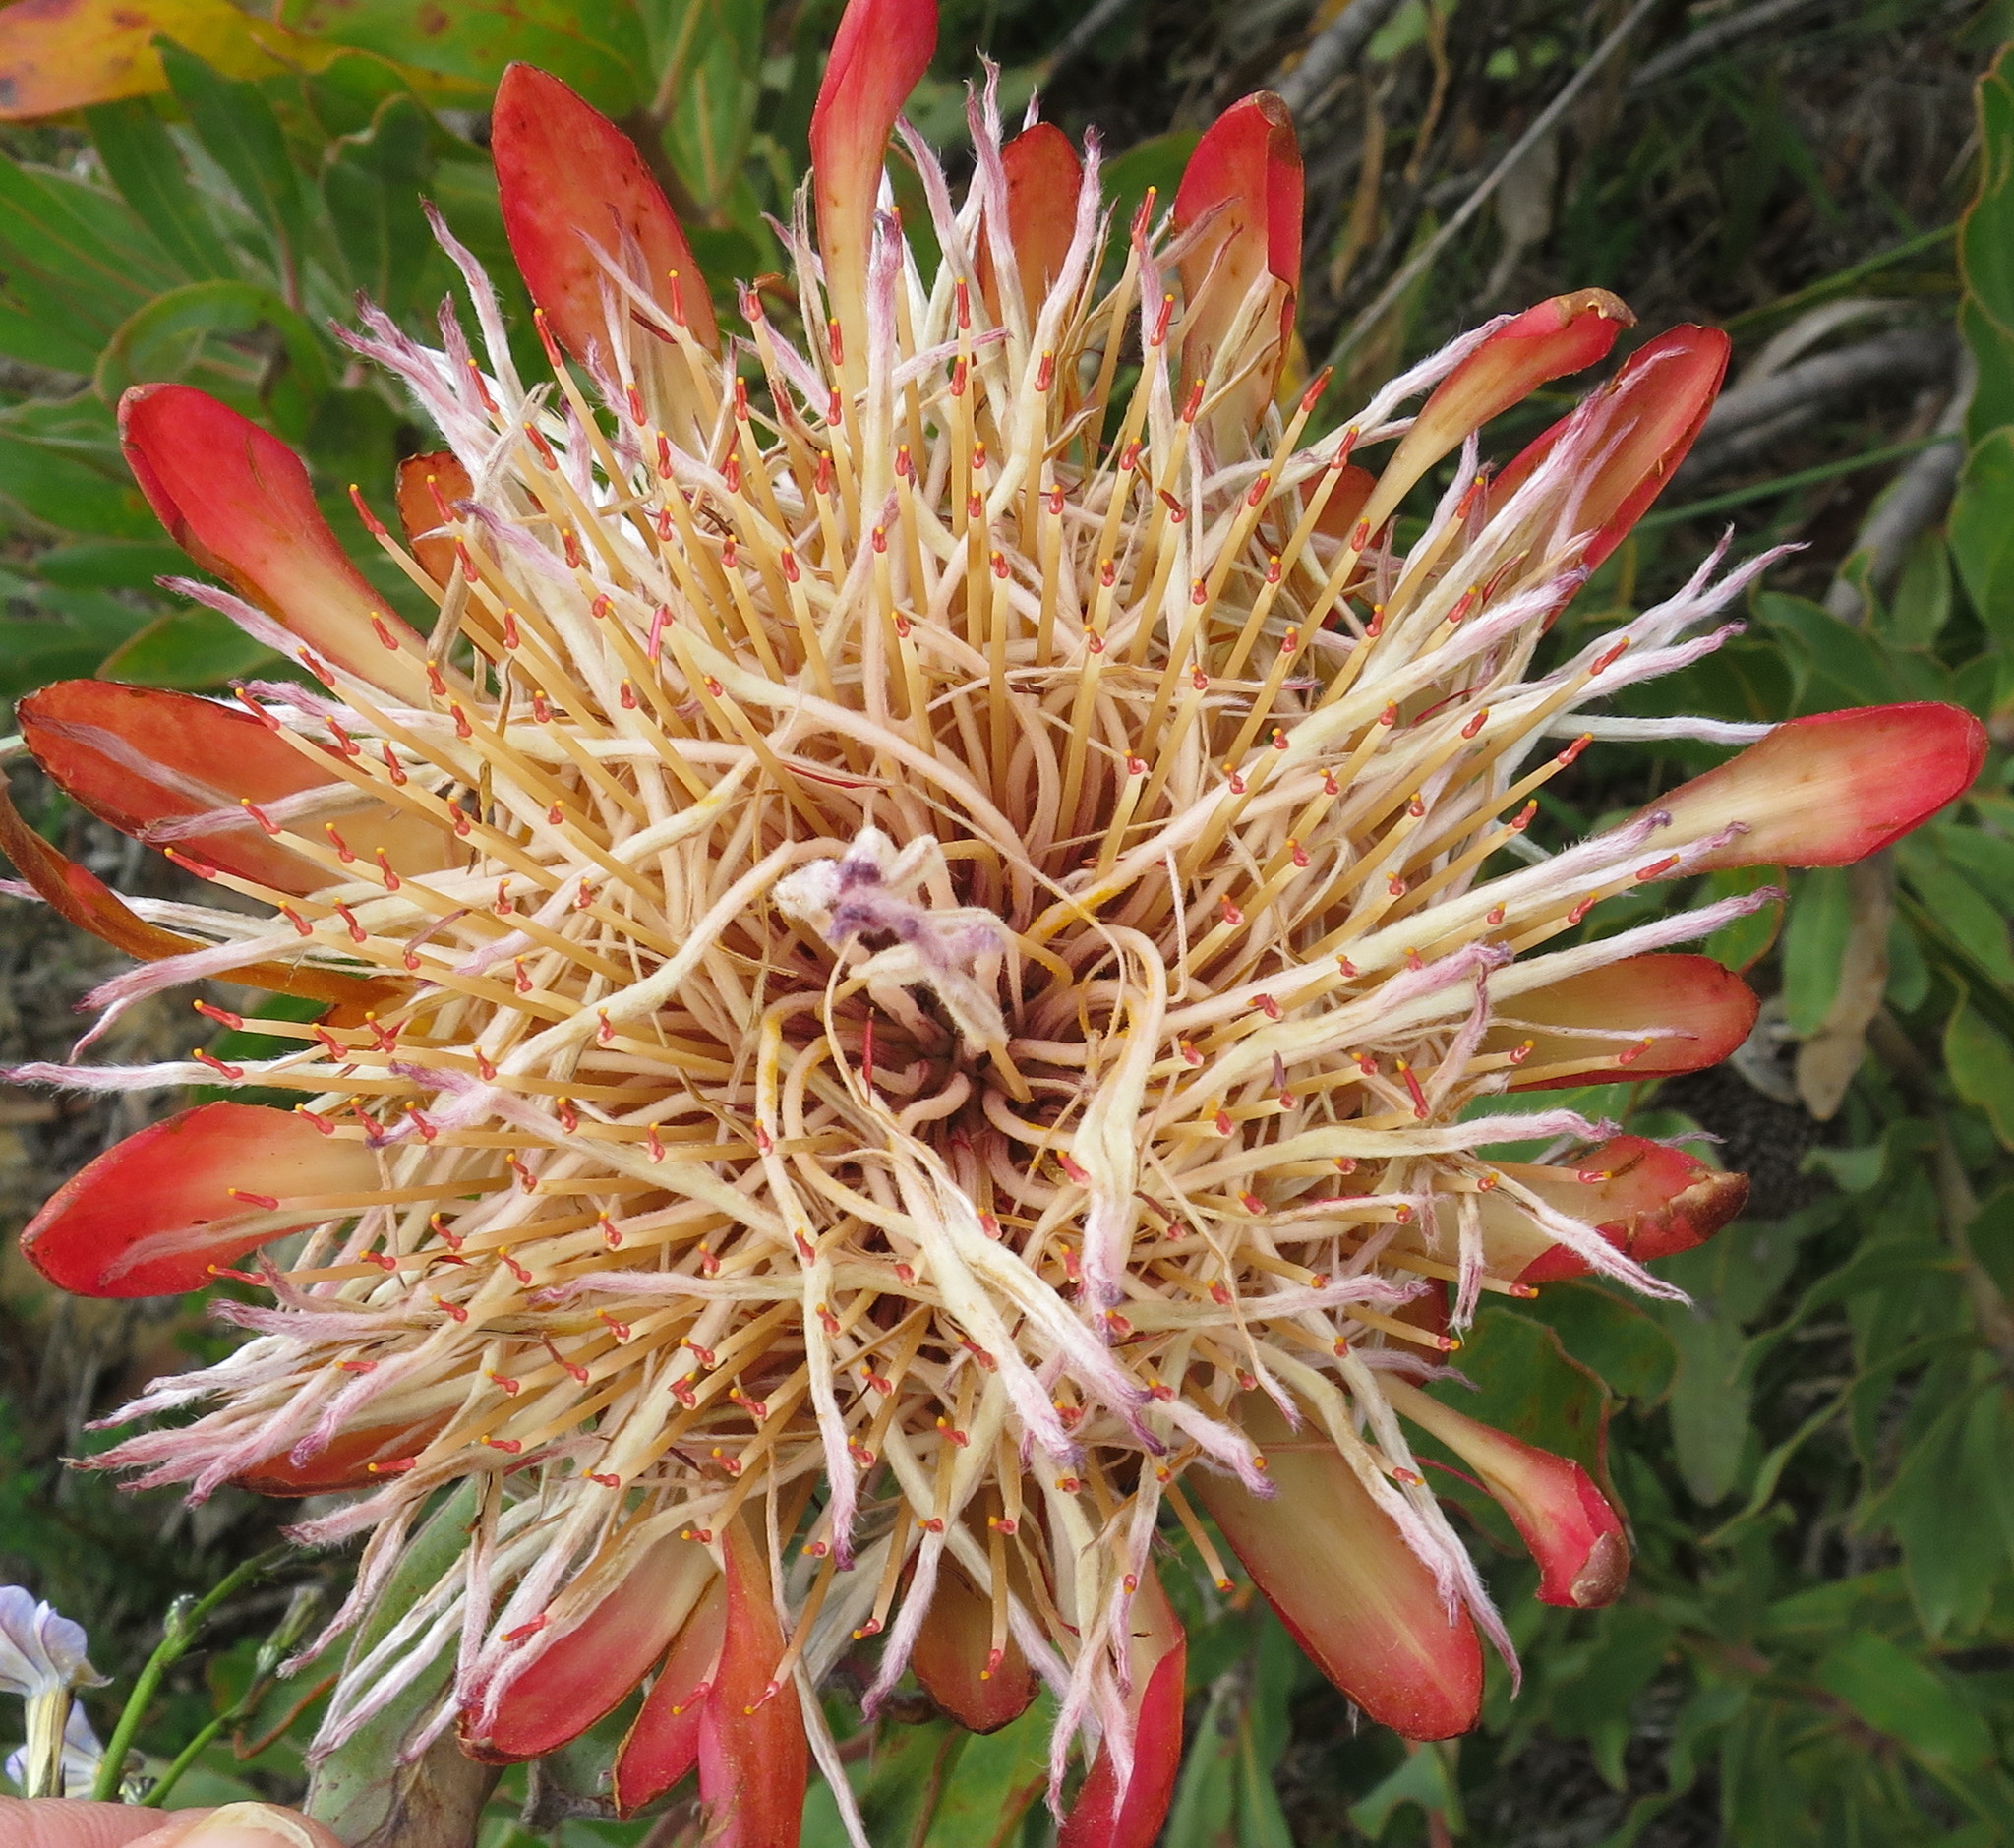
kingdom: Plantae
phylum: Tracheophyta
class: Magnoliopsida
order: Proteales
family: Proteaceae
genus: Protea
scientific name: Protea susannae
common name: Foetid-leaf sugarbush
